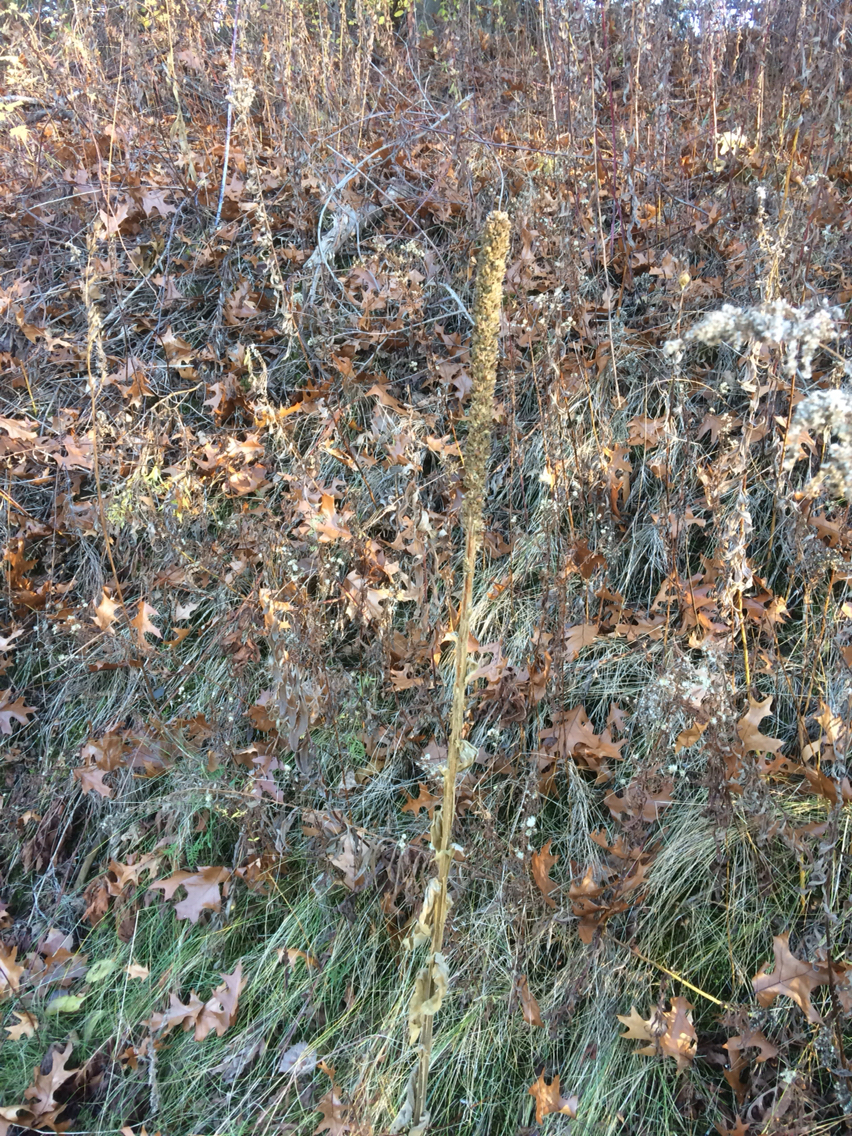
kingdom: Plantae
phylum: Tracheophyta
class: Magnoliopsida
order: Lamiales
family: Scrophulariaceae
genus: Verbascum
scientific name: Verbascum thapsus
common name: Common mullein
